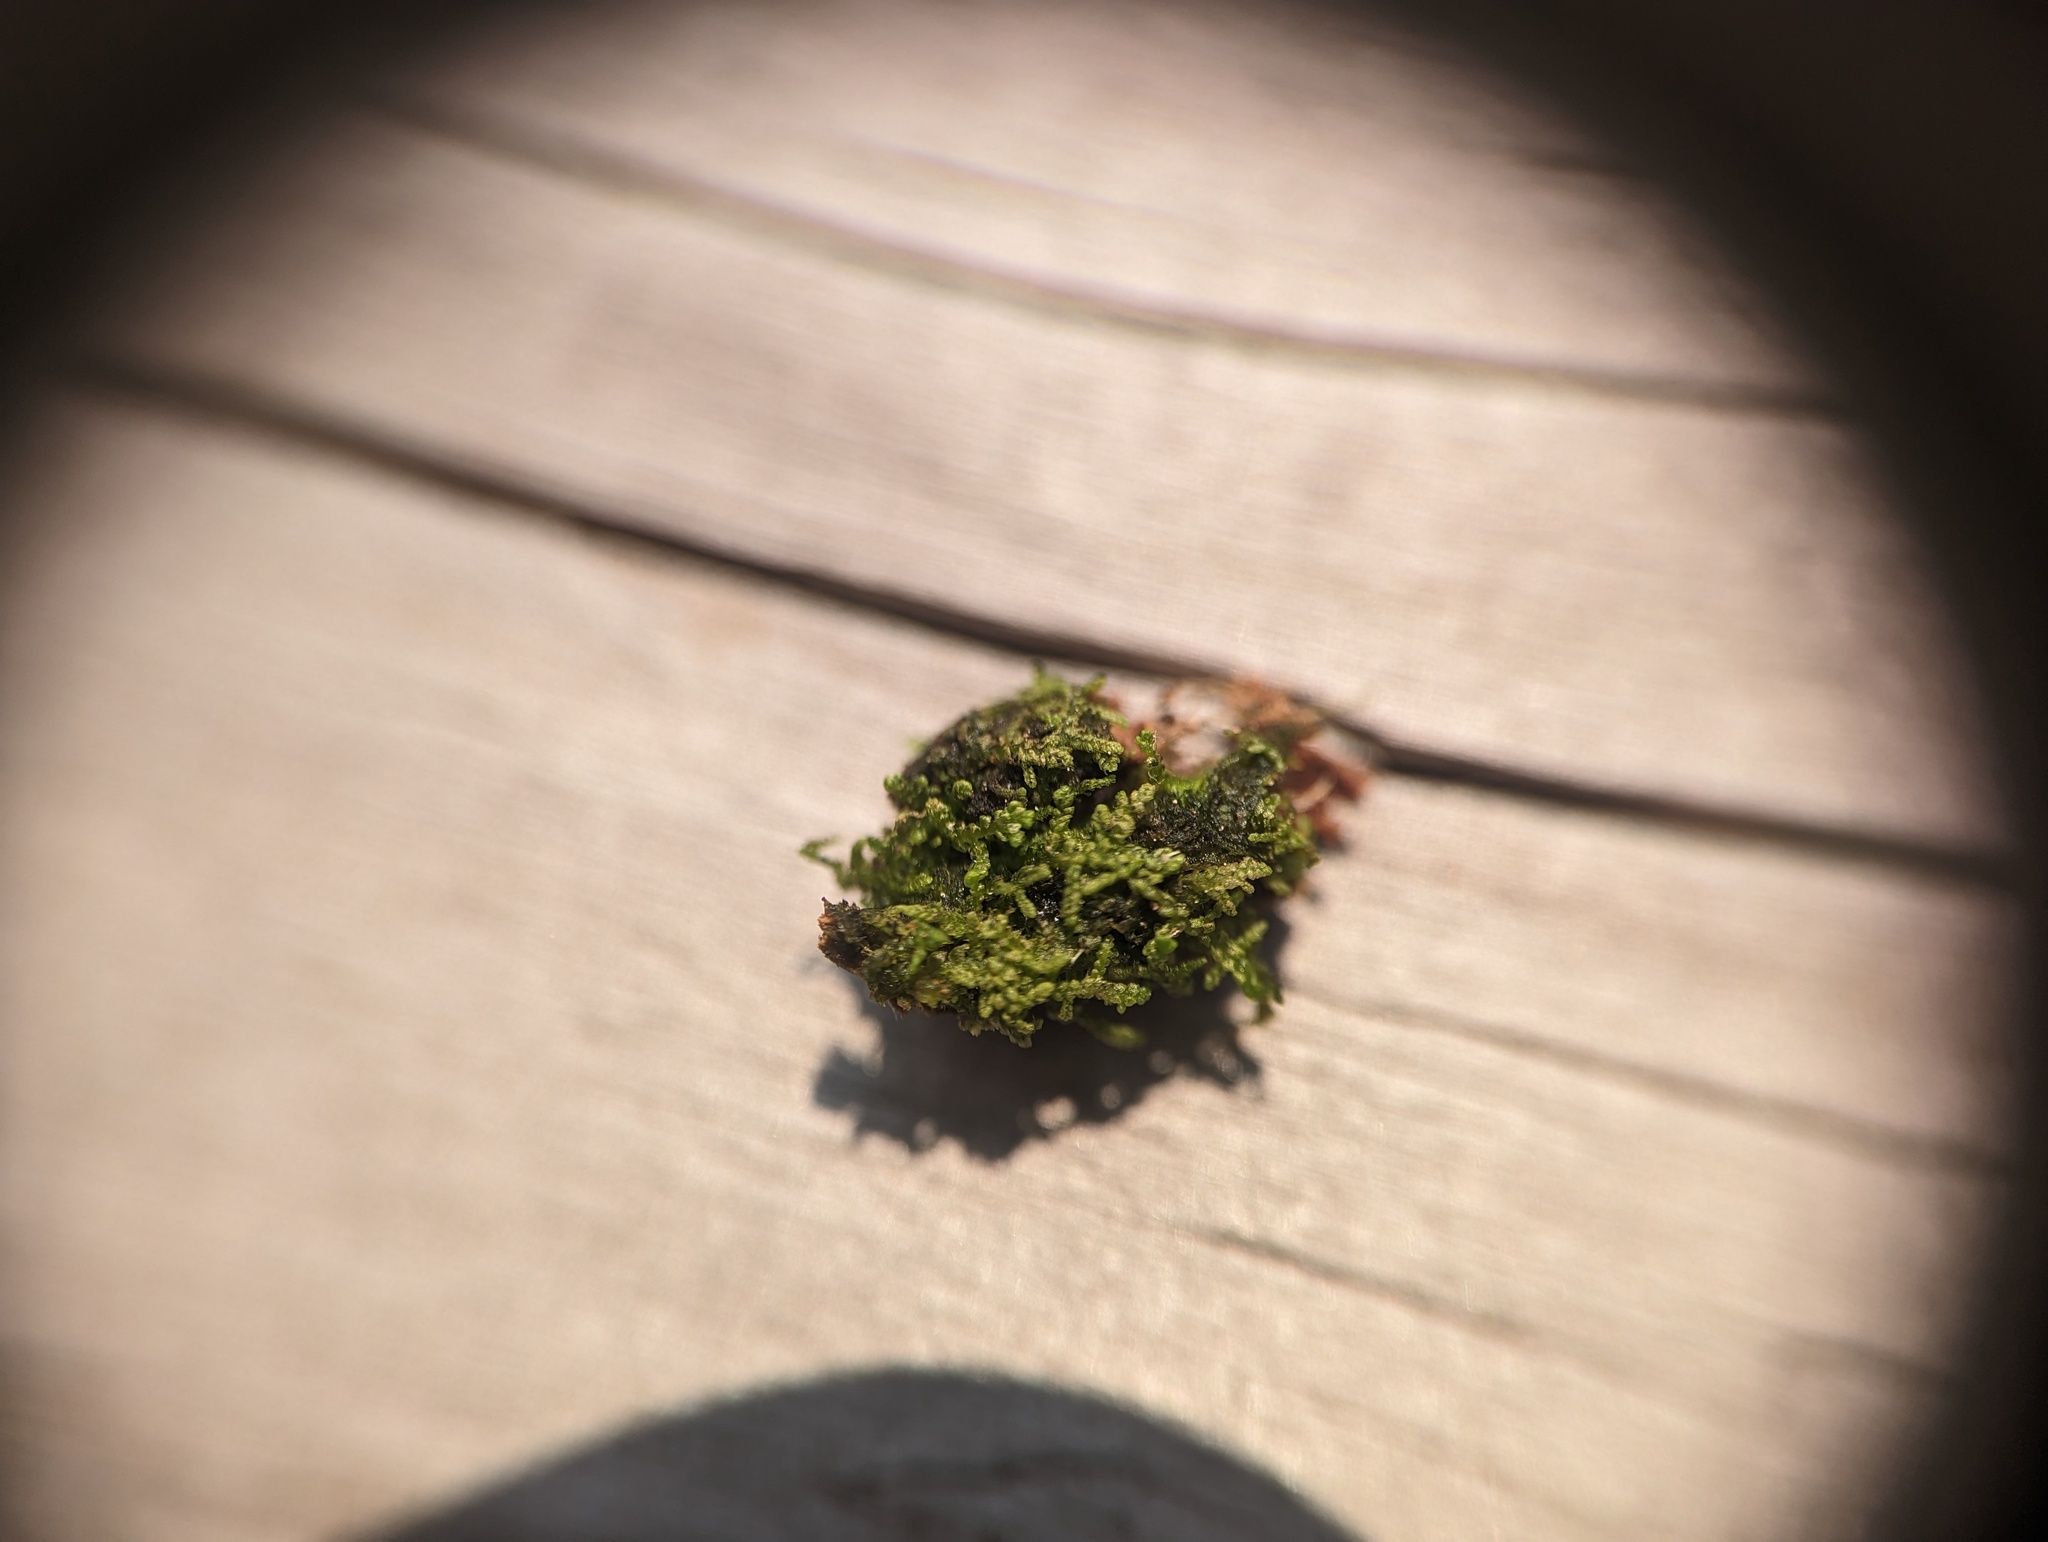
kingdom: Plantae
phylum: Marchantiophyta
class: Jungermanniopsida
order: Jungermanniales
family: Lepidoziaceae
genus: Lepidozia
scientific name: Lepidozia reptans
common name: Creeping fingerwort
